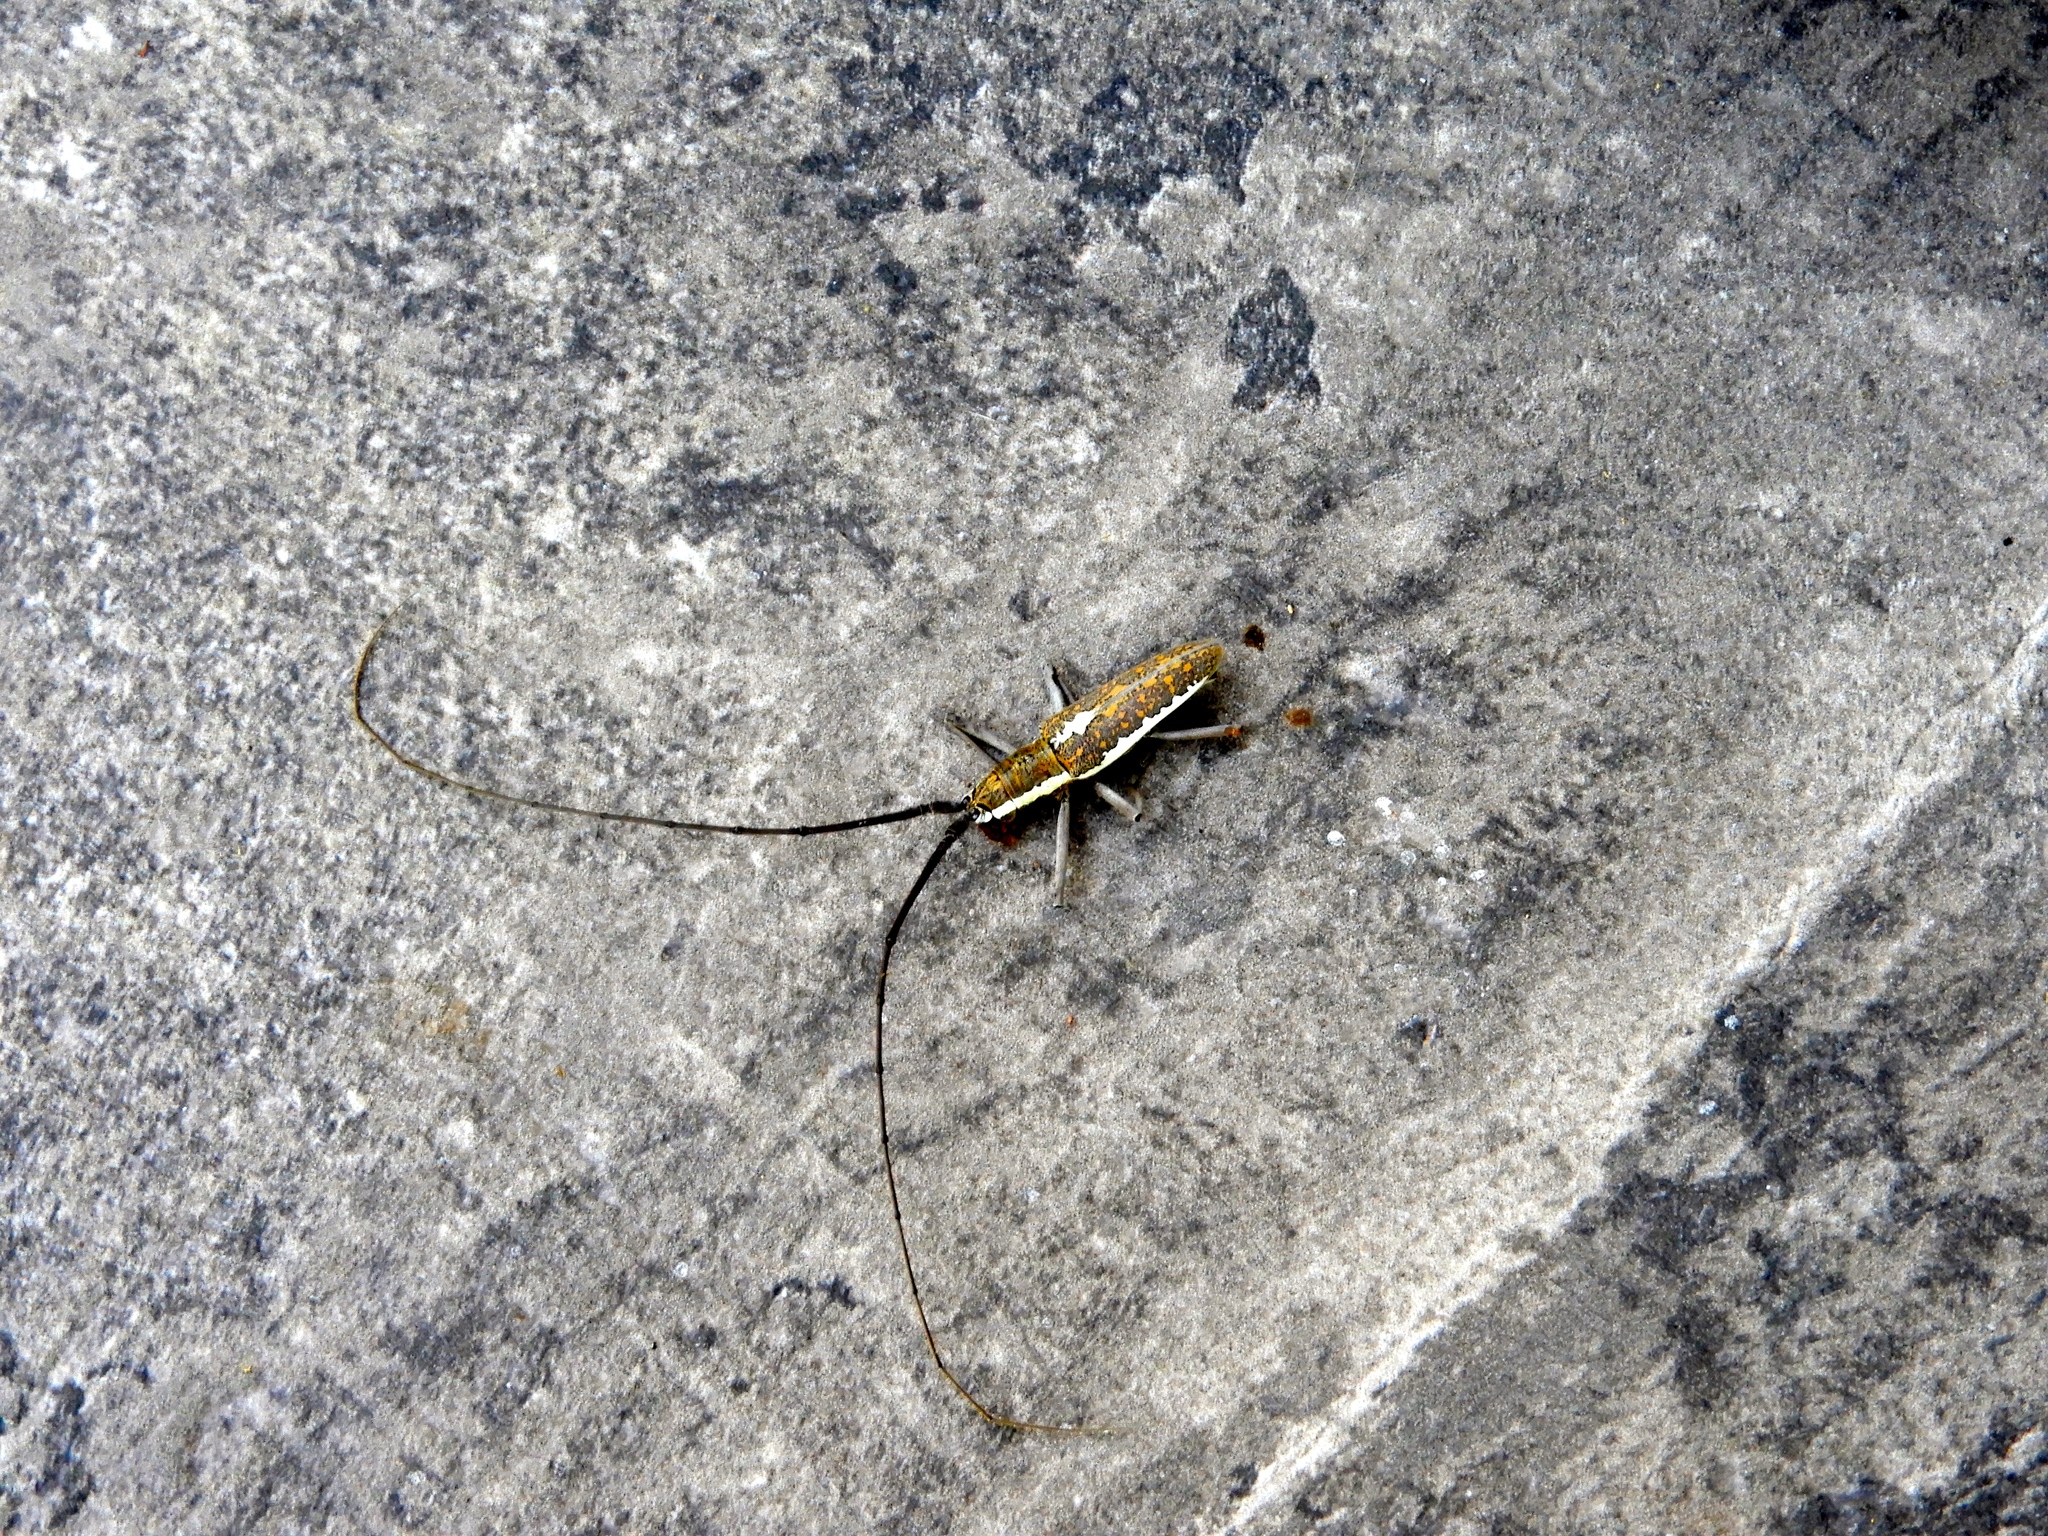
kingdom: Animalia
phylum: Arthropoda
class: Insecta
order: Coleoptera
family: Cerambycidae
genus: Neoptychodes
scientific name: Neoptychodes trilineatus
